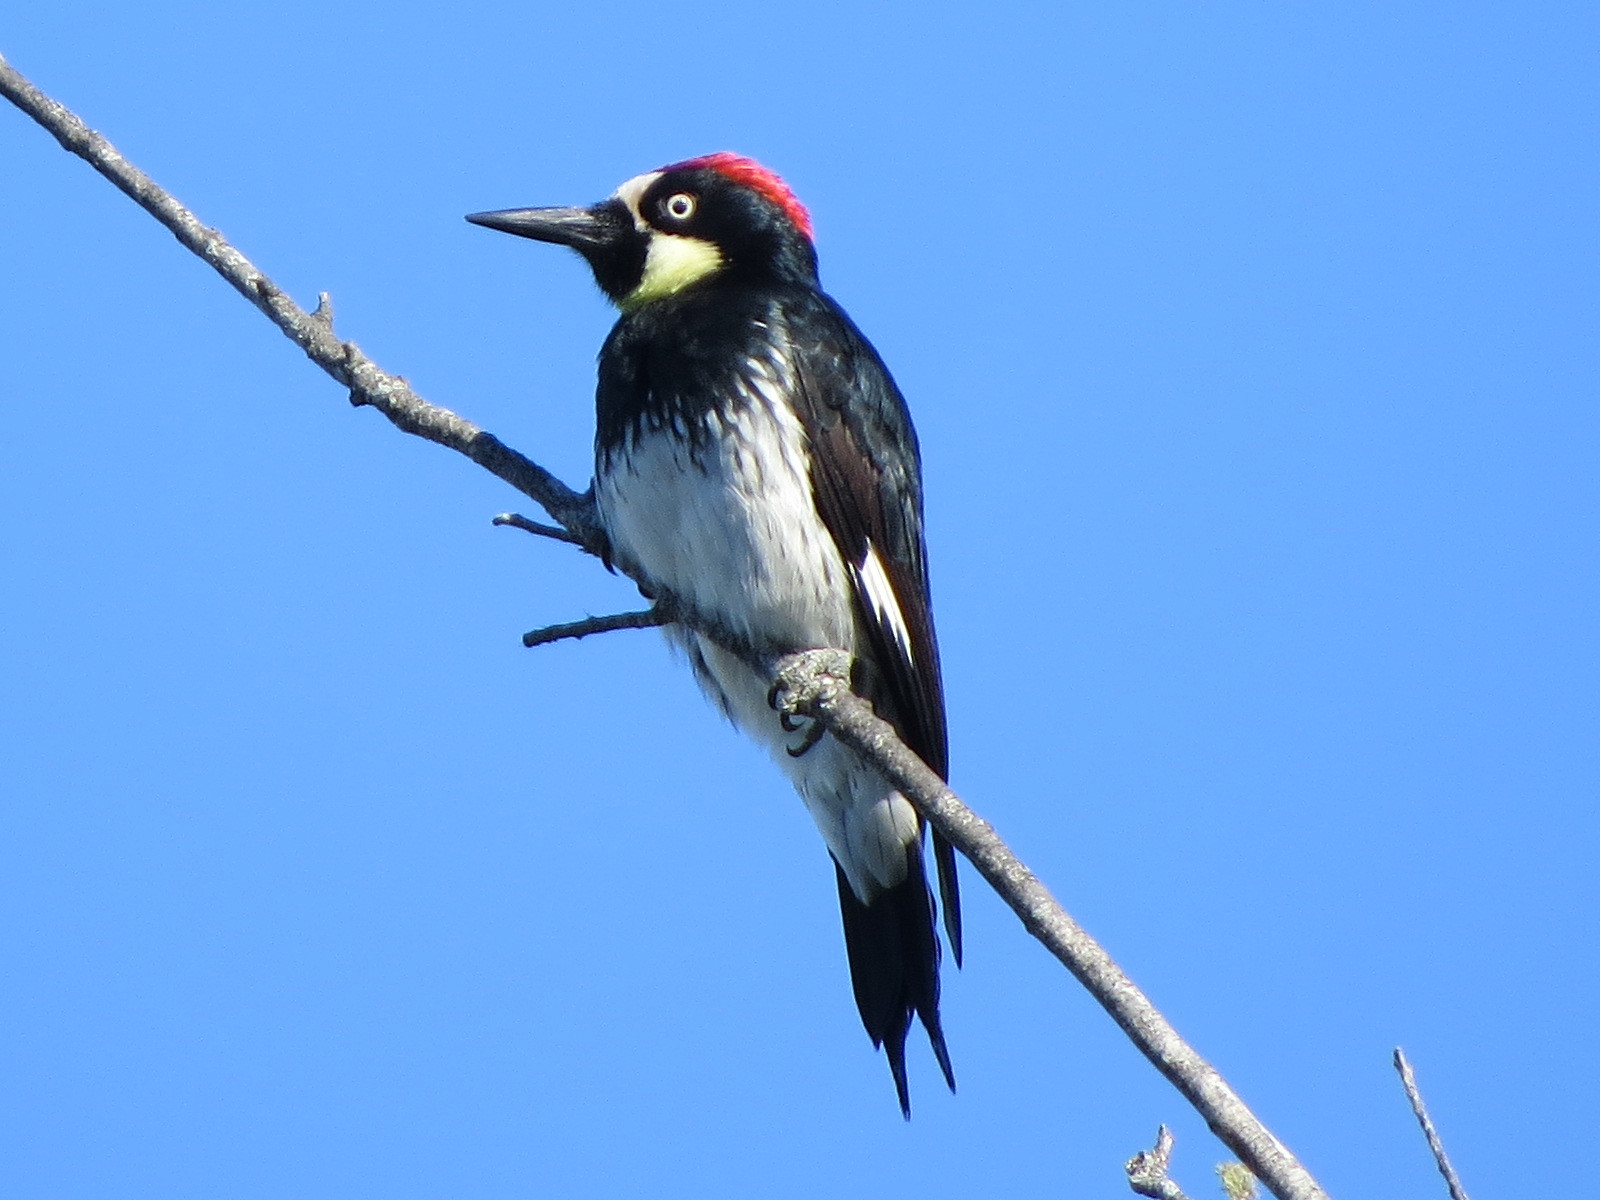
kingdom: Animalia
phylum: Chordata
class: Aves
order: Piciformes
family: Picidae
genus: Melanerpes
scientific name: Melanerpes formicivorus
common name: Acorn woodpecker
